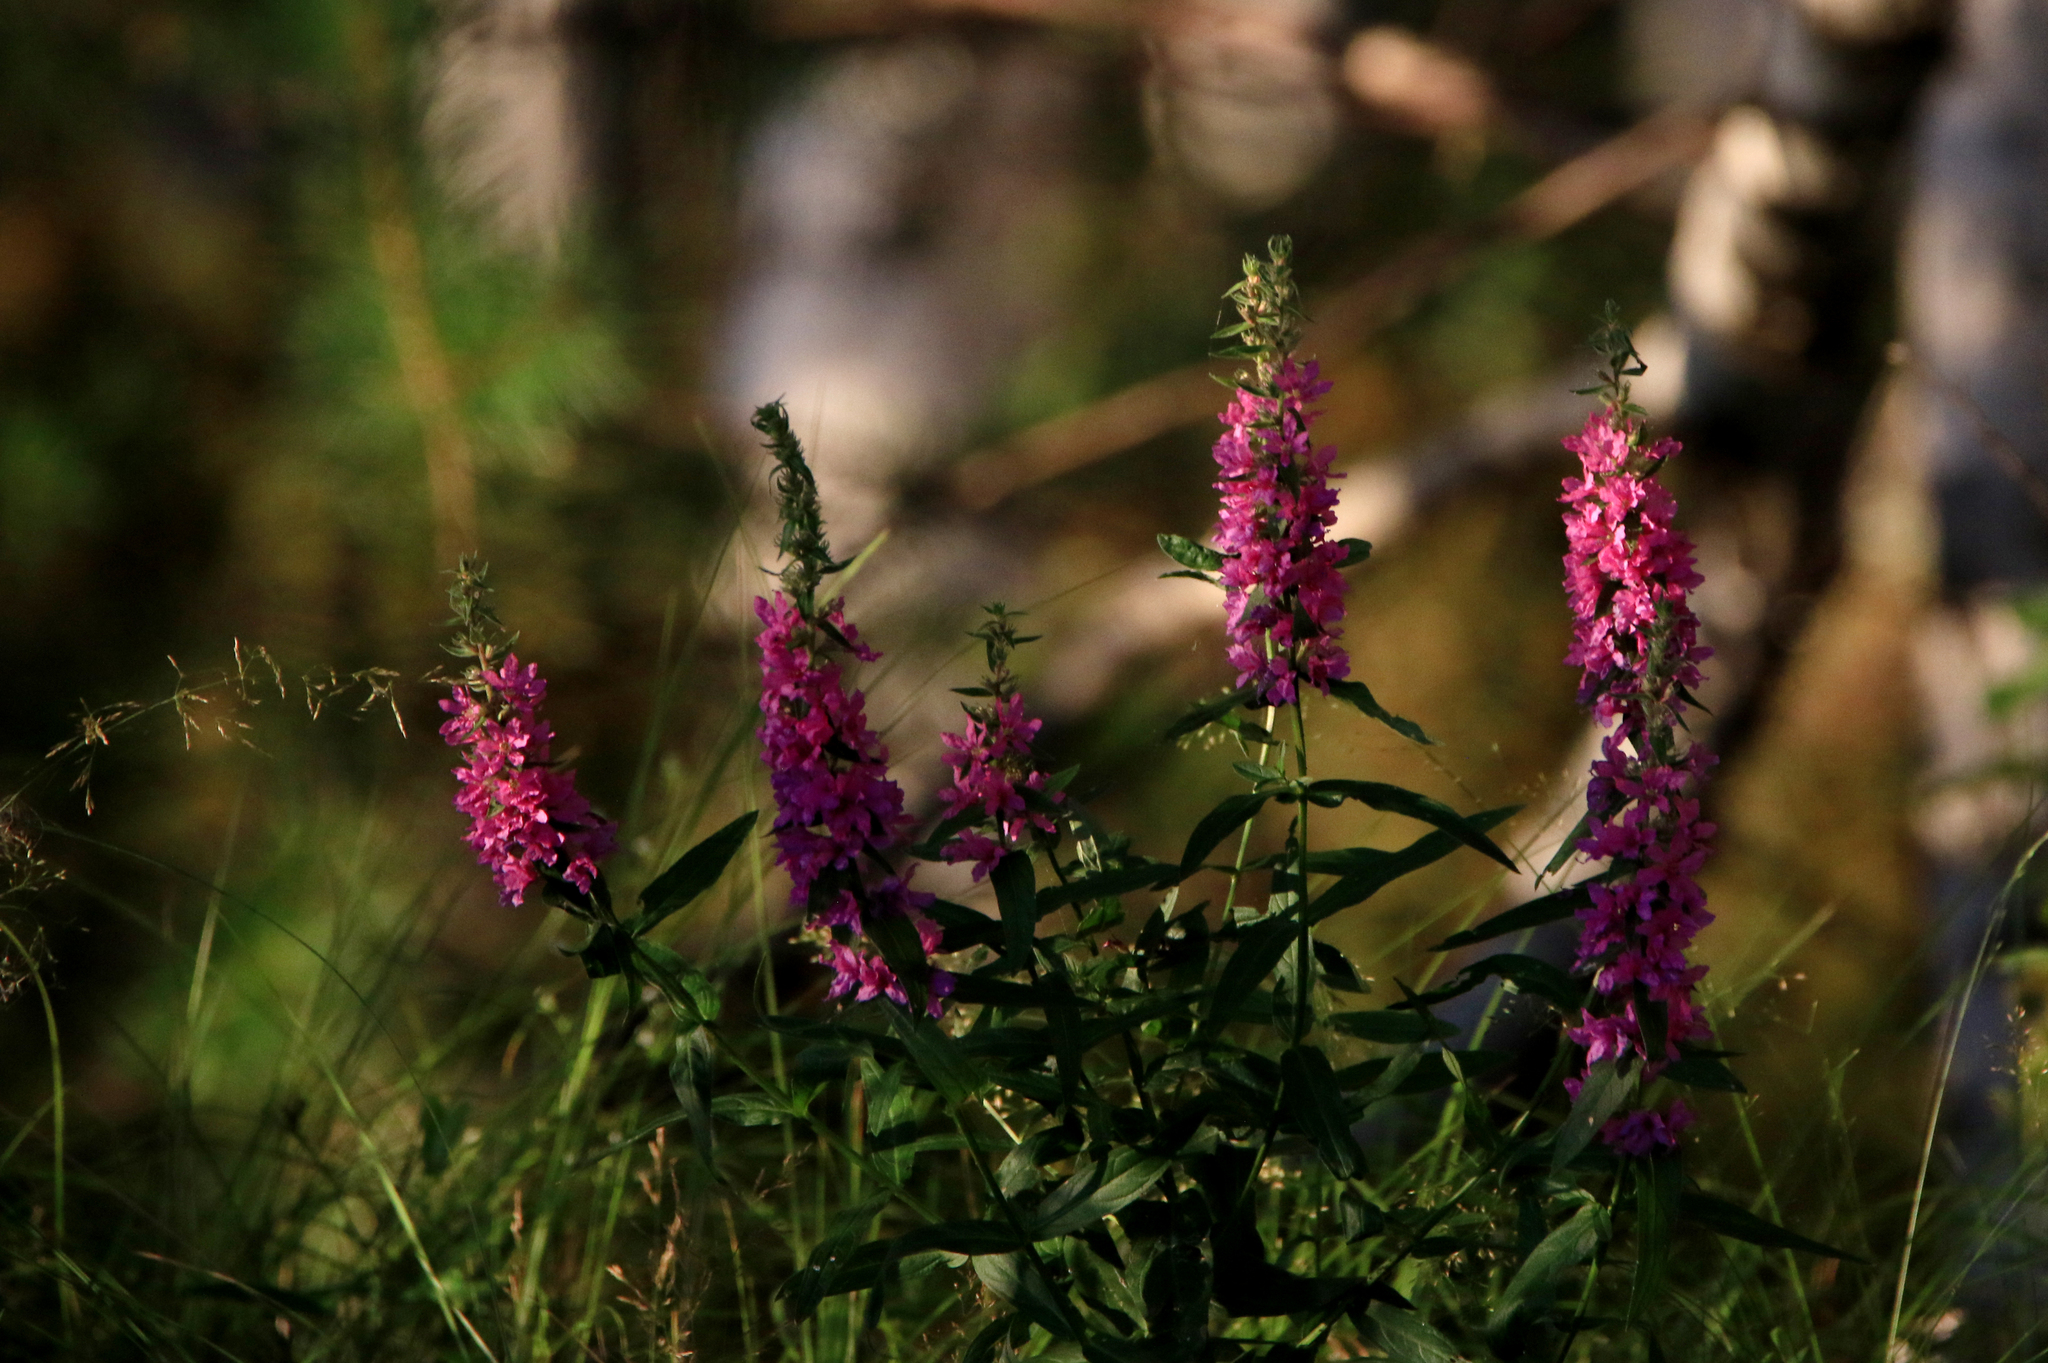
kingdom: Plantae
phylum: Tracheophyta
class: Magnoliopsida
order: Myrtales
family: Lythraceae
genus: Lythrum
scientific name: Lythrum salicaria
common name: Purple loosestrife
